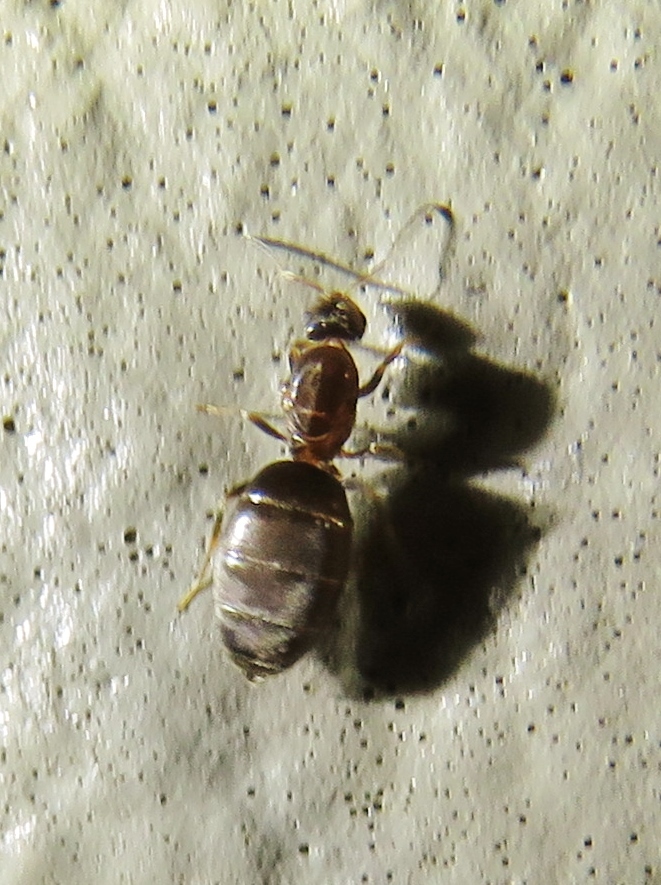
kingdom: Animalia
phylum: Arthropoda
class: Insecta
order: Hymenoptera
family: Formicidae
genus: Brachymyrmex
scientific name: Brachymyrmex patagonicus
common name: Dark rover ant
